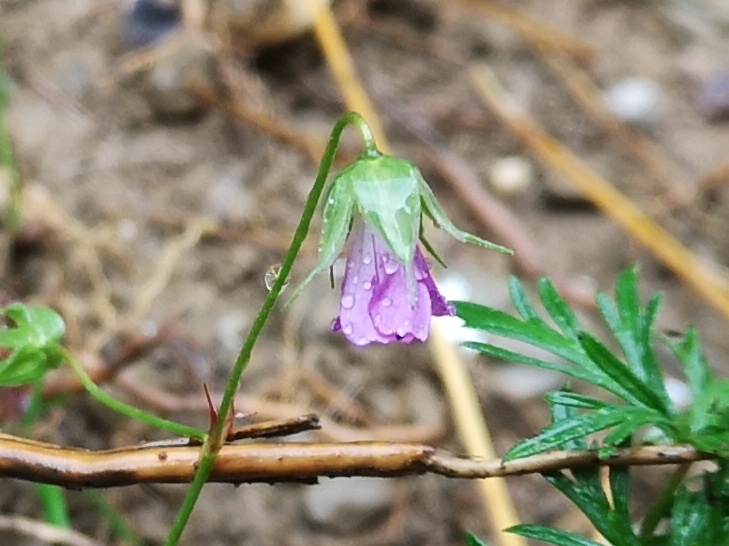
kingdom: Plantae
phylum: Tracheophyta
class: Magnoliopsida
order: Geraniales
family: Geraniaceae
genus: Geranium
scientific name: Geranium columbinum
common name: Long-stalked crane's-bill
